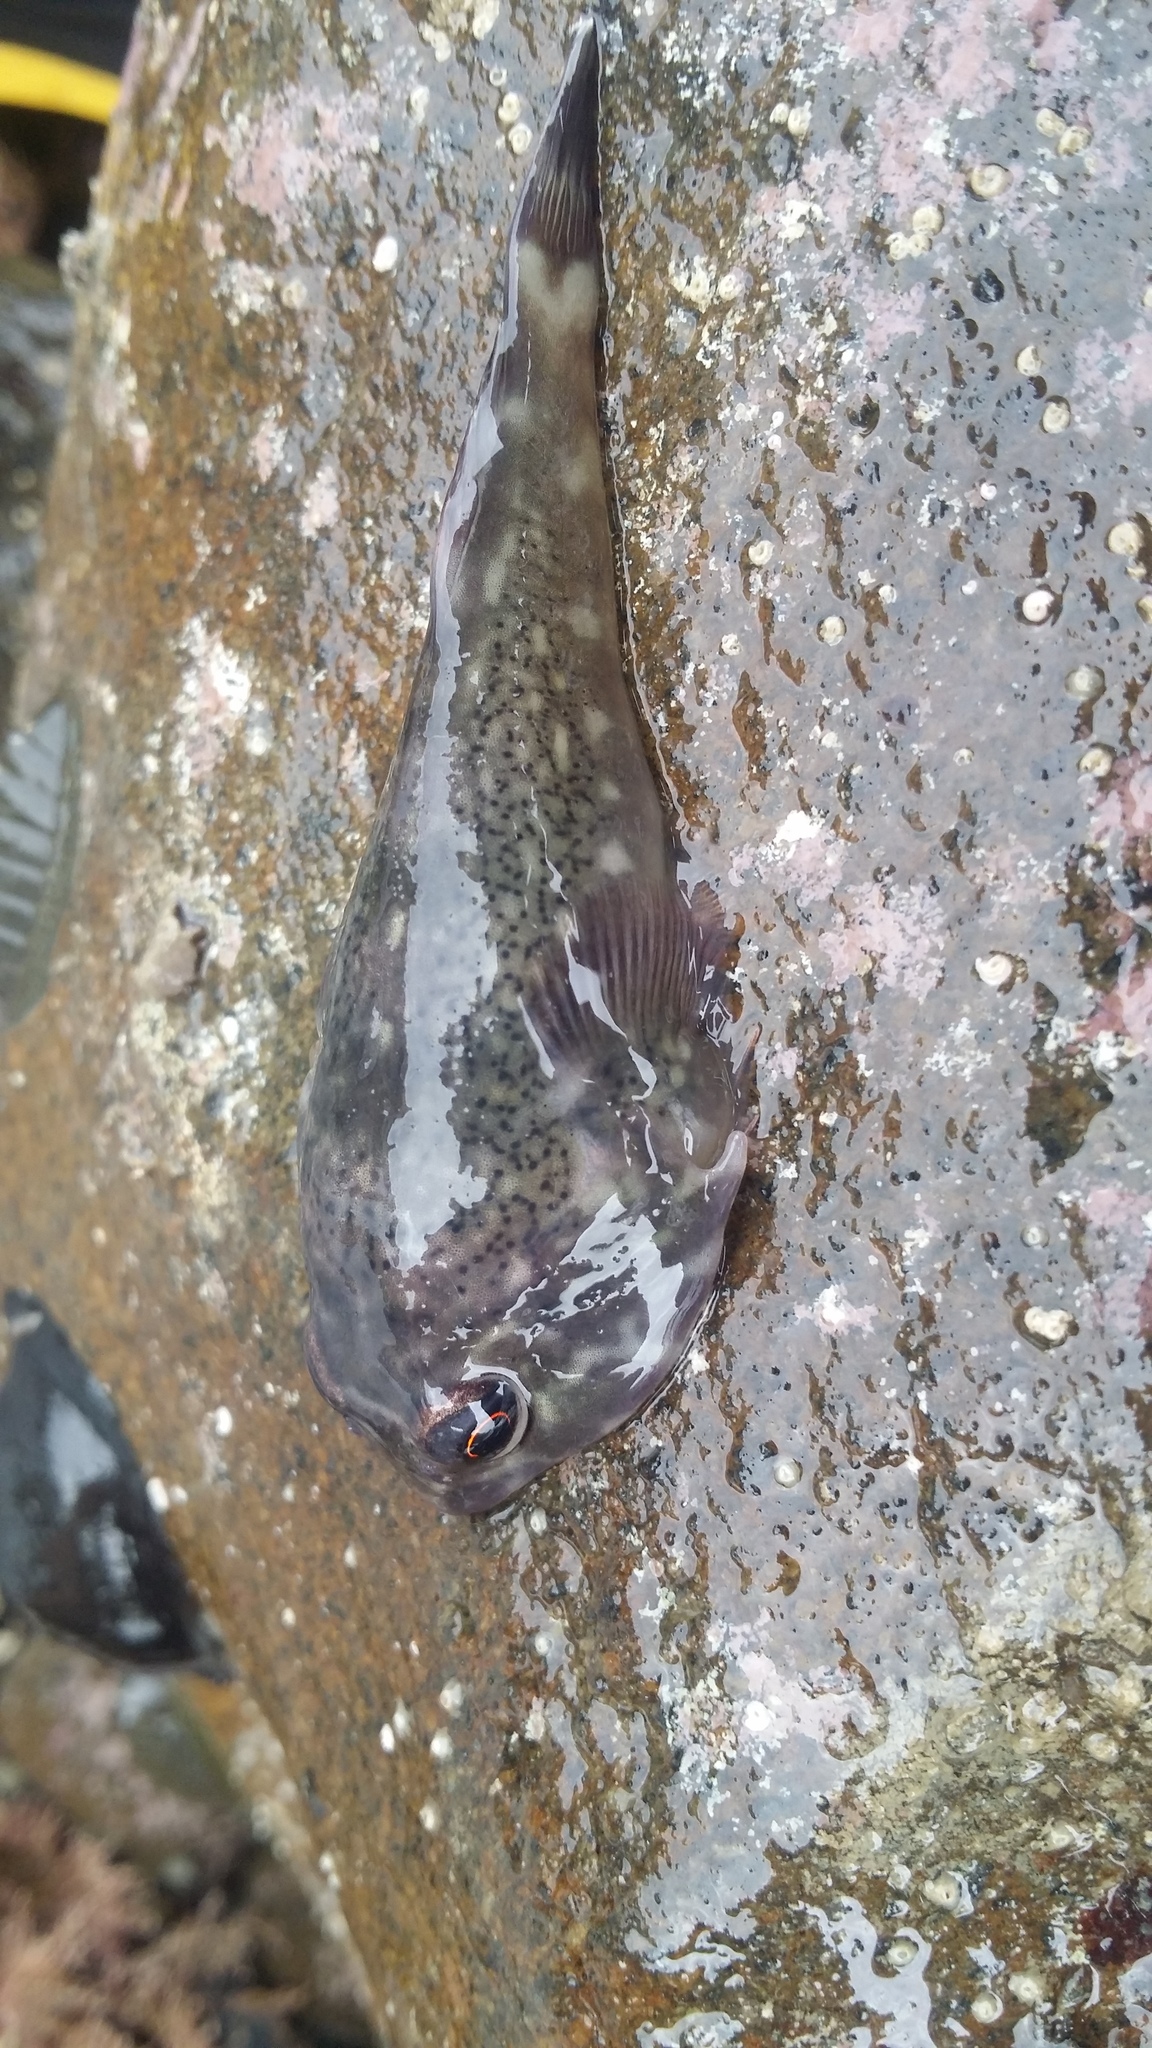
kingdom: Animalia
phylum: Chordata
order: Gobiesociformes
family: Gobiesocidae
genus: Diplocrepis
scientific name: Diplocrepis puniceus
